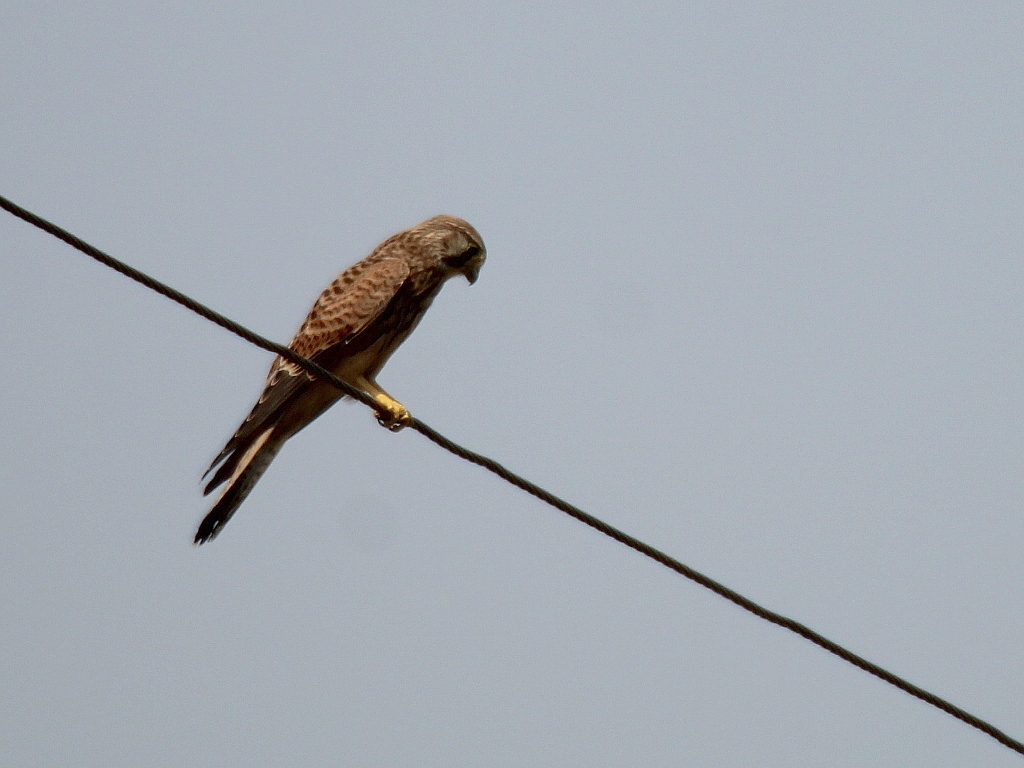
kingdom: Animalia
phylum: Chordata
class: Aves
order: Falconiformes
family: Falconidae
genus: Falco
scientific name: Falco tinnunculus
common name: Common kestrel
